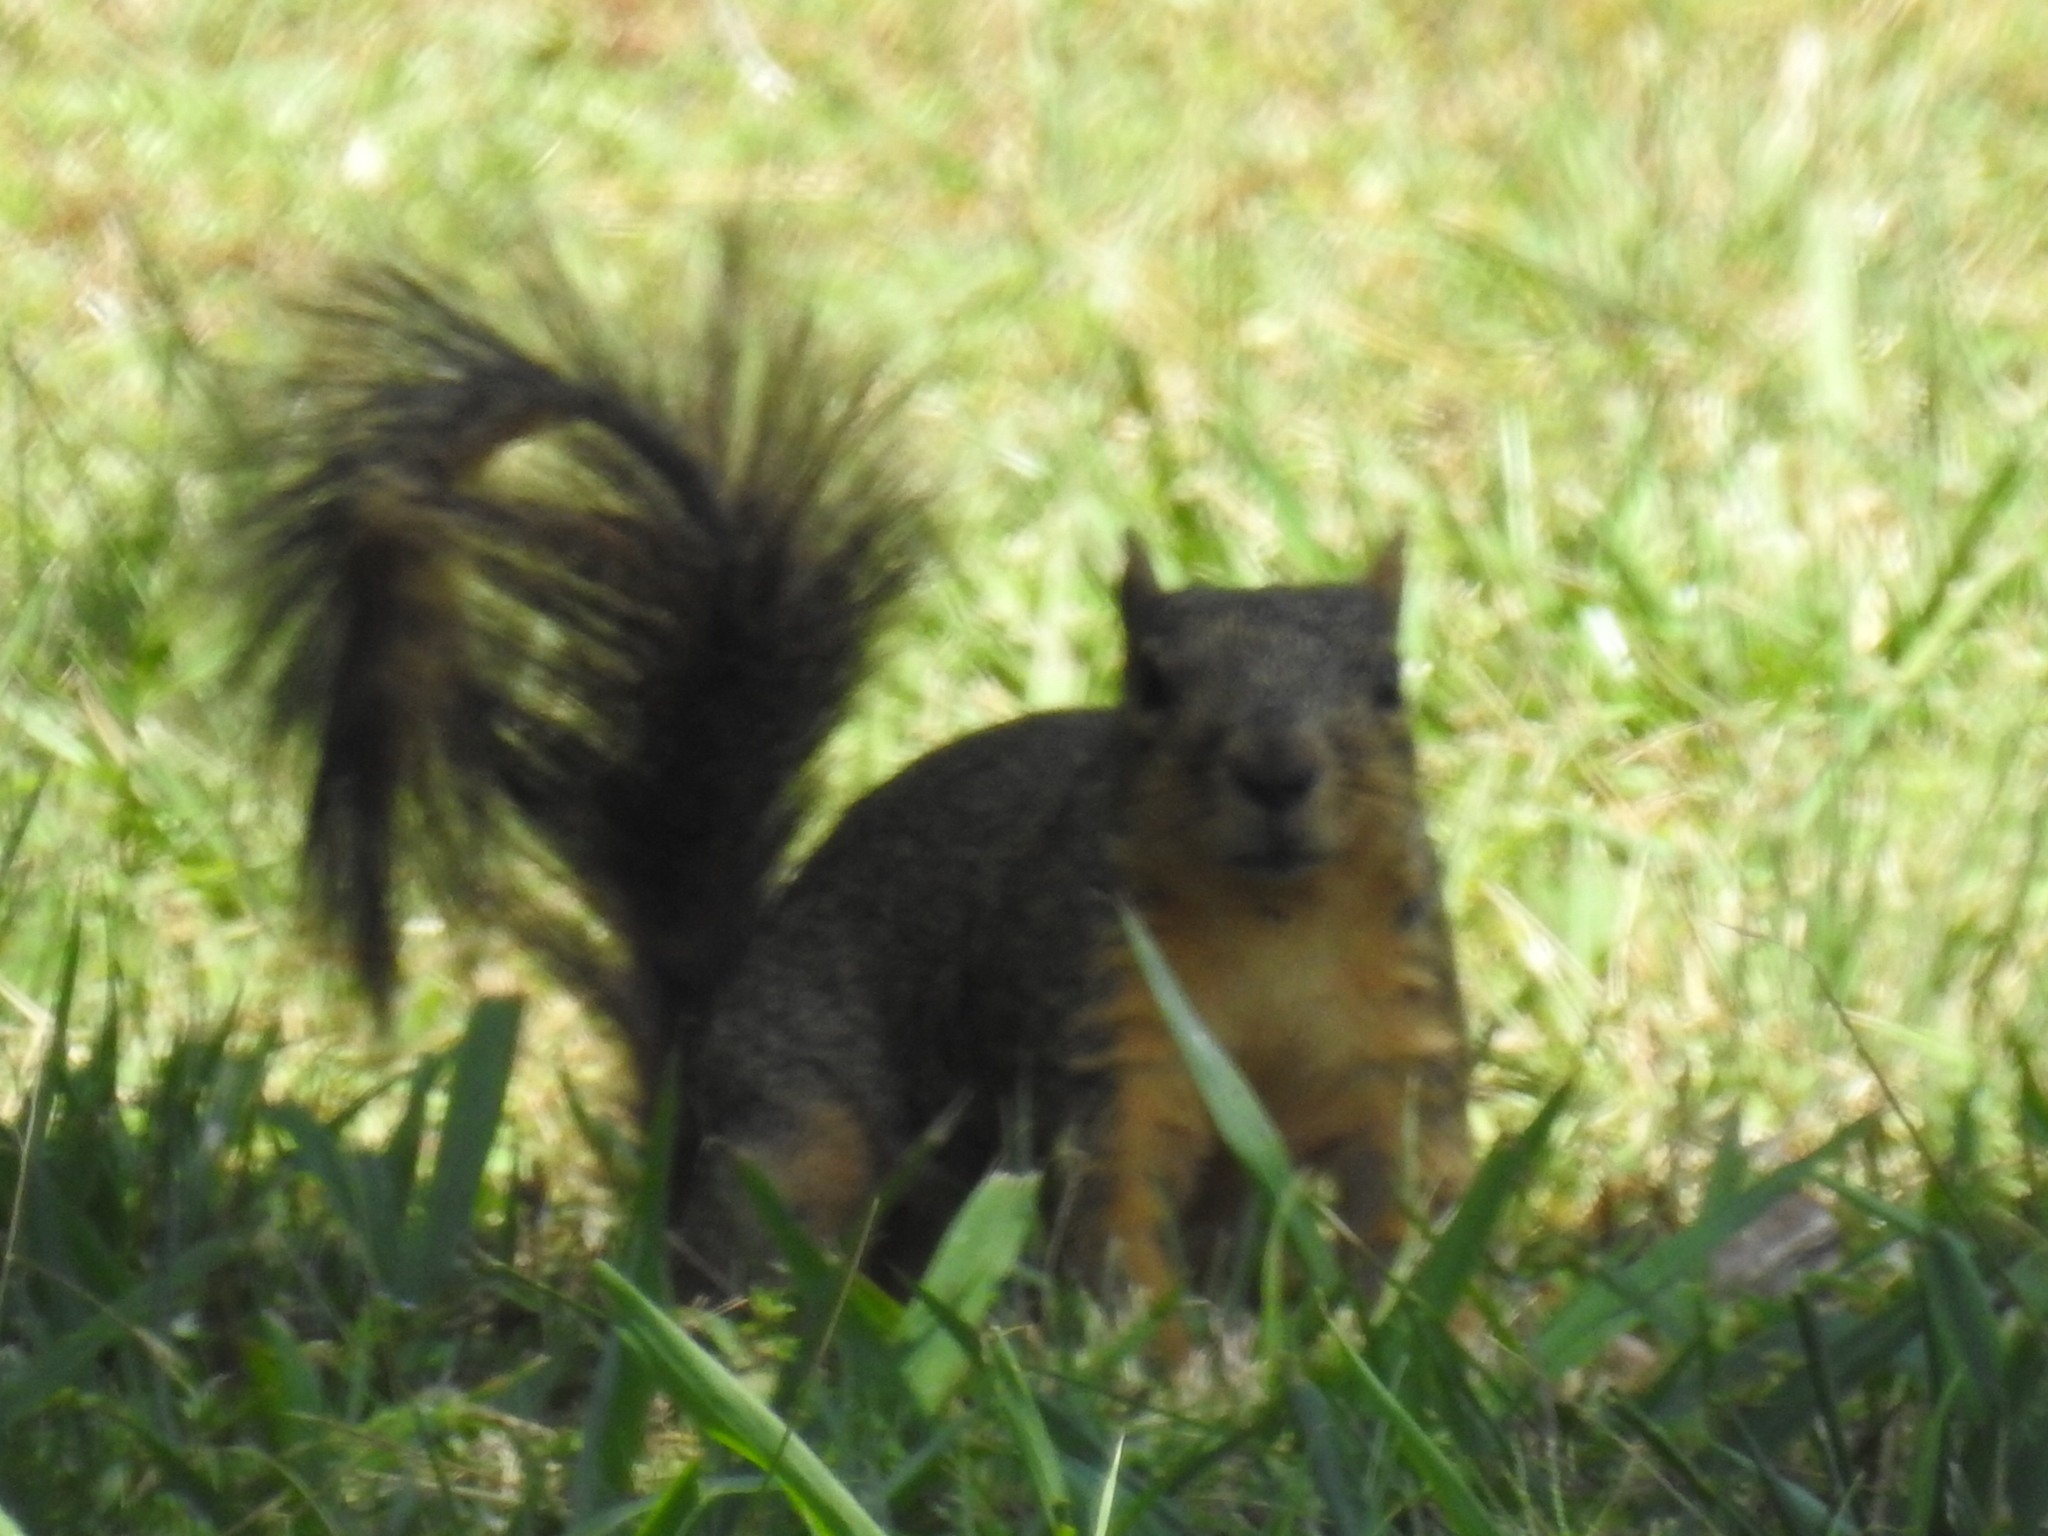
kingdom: Animalia
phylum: Chordata
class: Mammalia
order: Rodentia
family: Sciuridae
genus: Sciurus
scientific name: Sciurus niger
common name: Fox squirrel
